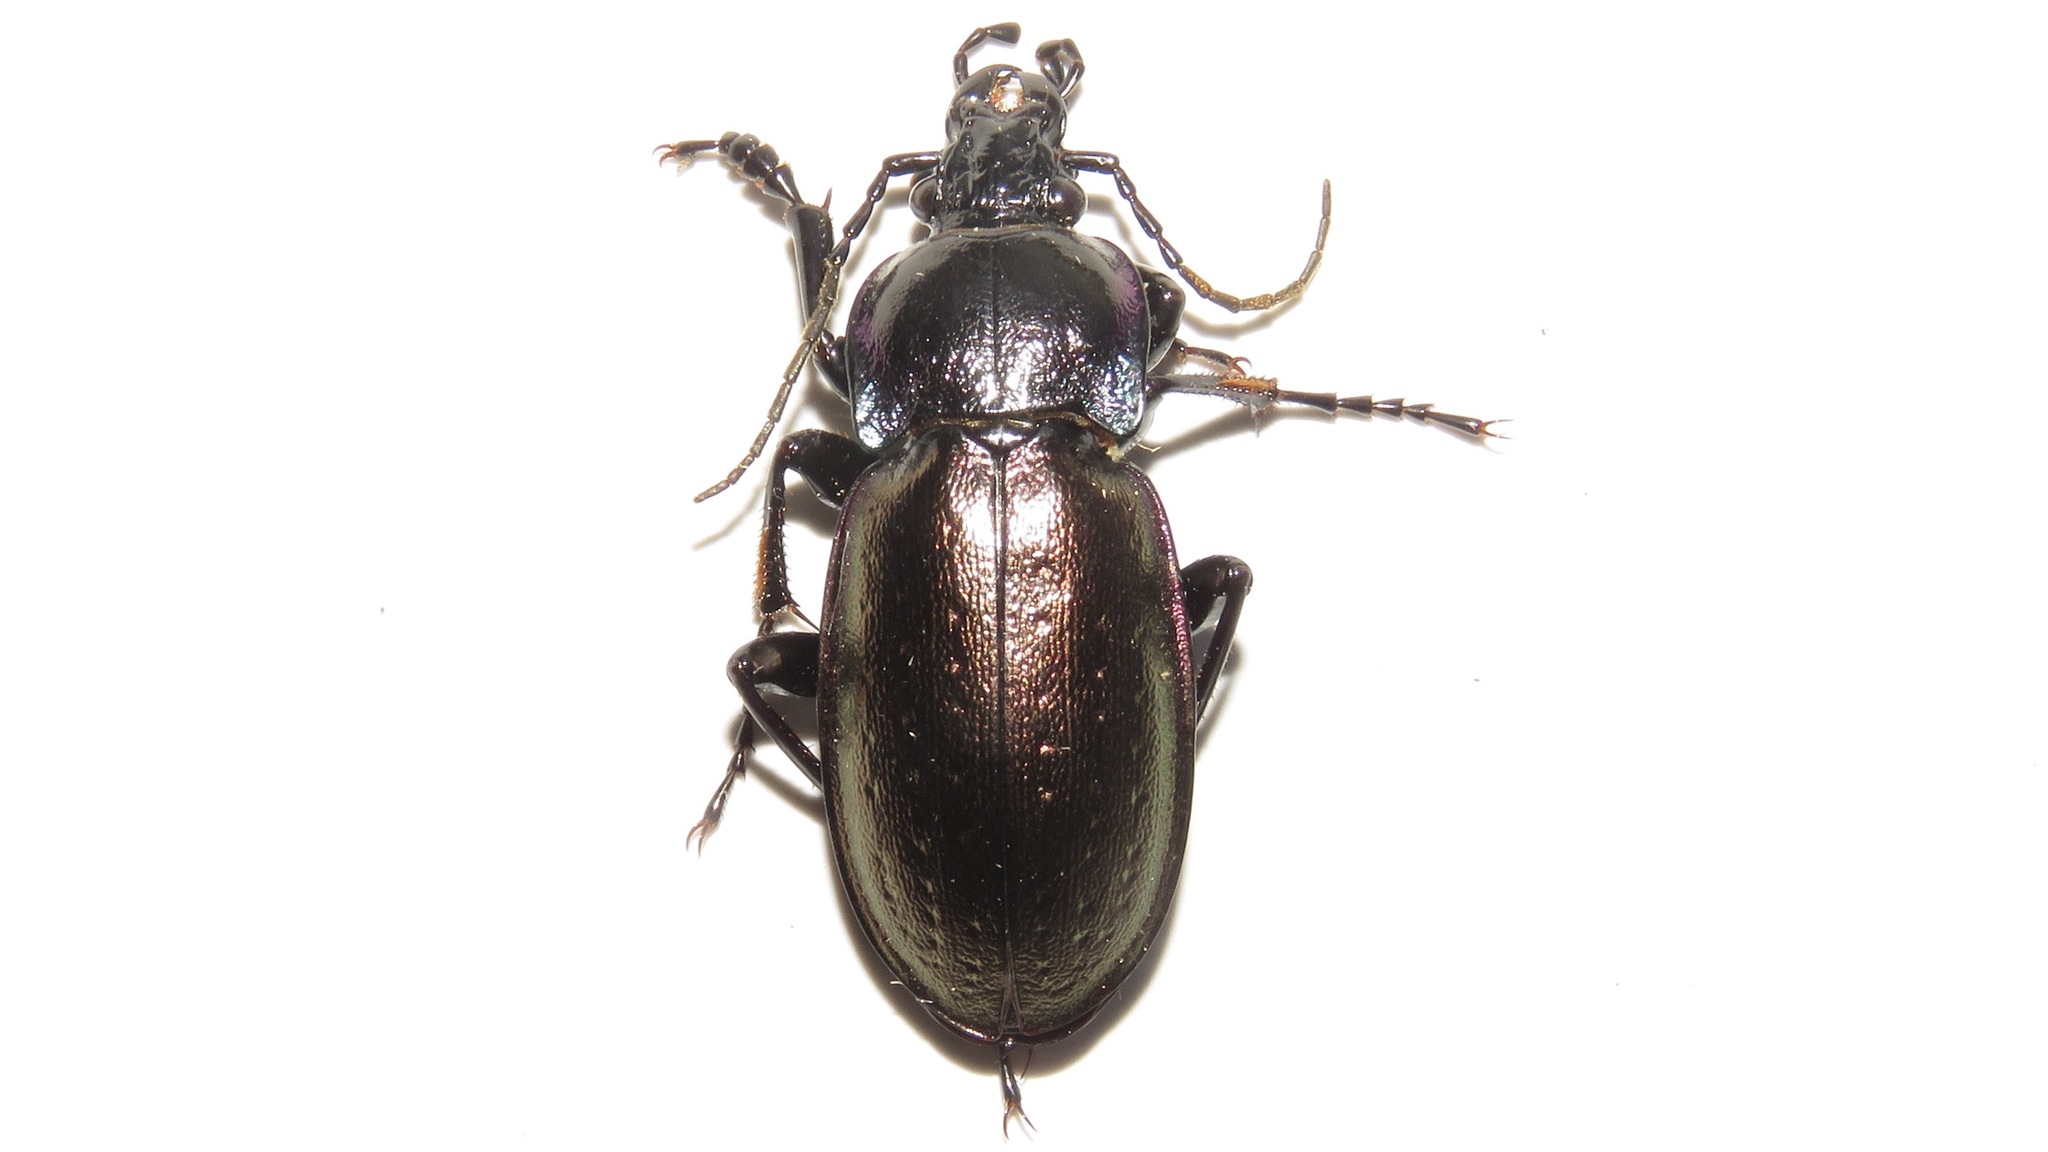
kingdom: Animalia
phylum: Arthropoda
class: Insecta
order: Coleoptera
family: Carabidae
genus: Carabus
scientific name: Carabus nemoralis
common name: European ground beetle
